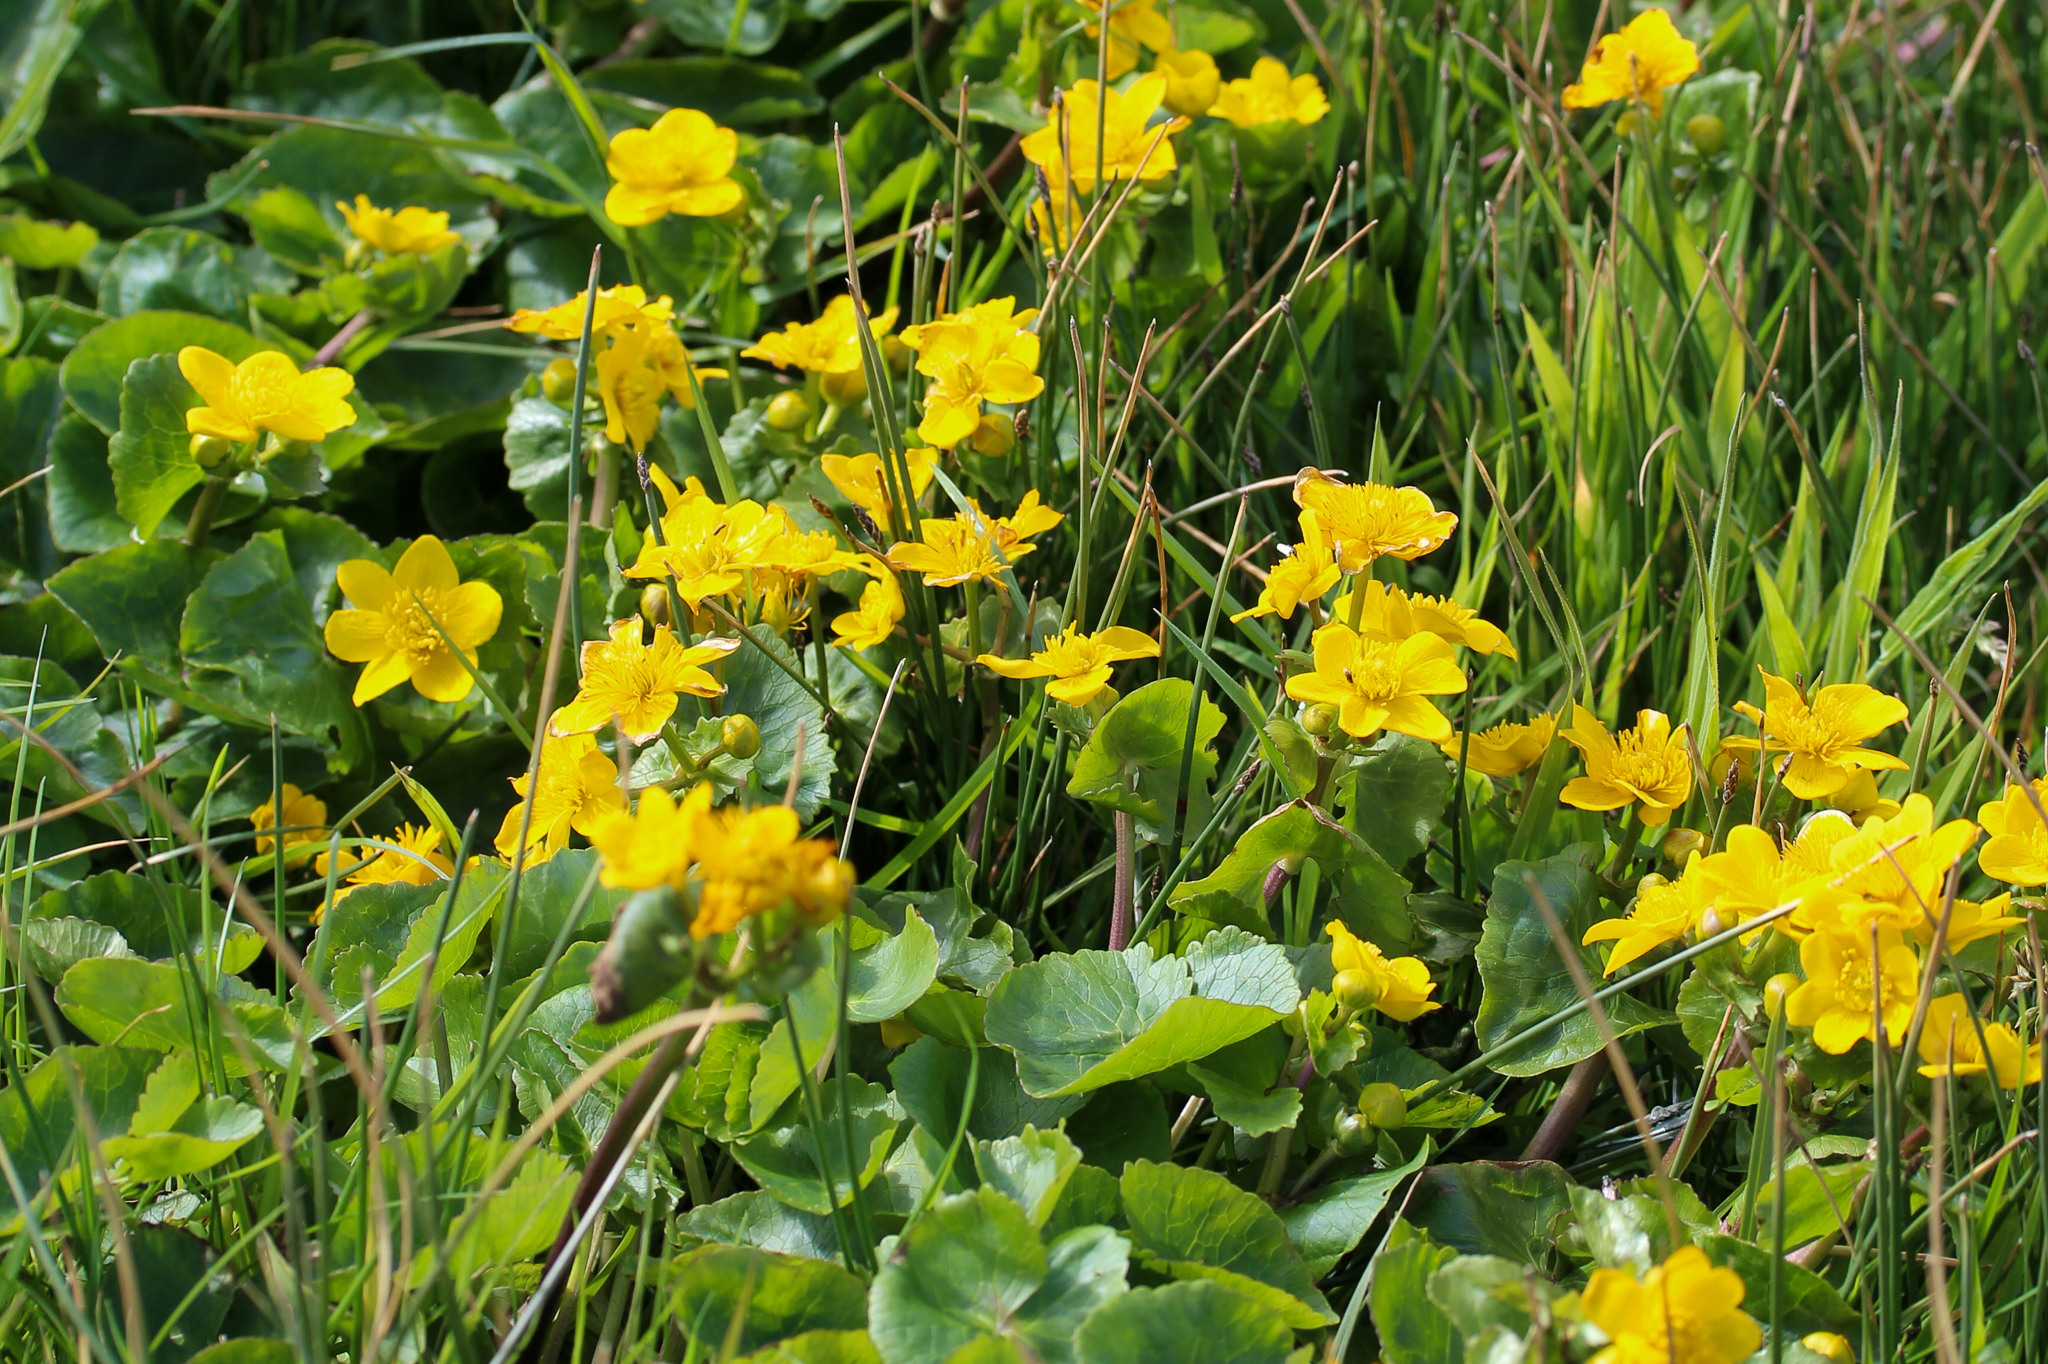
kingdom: Plantae
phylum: Tracheophyta
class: Magnoliopsida
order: Ranunculales
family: Ranunculaceae
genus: Caltha
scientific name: Caltha palustris
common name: Marsh marigold
